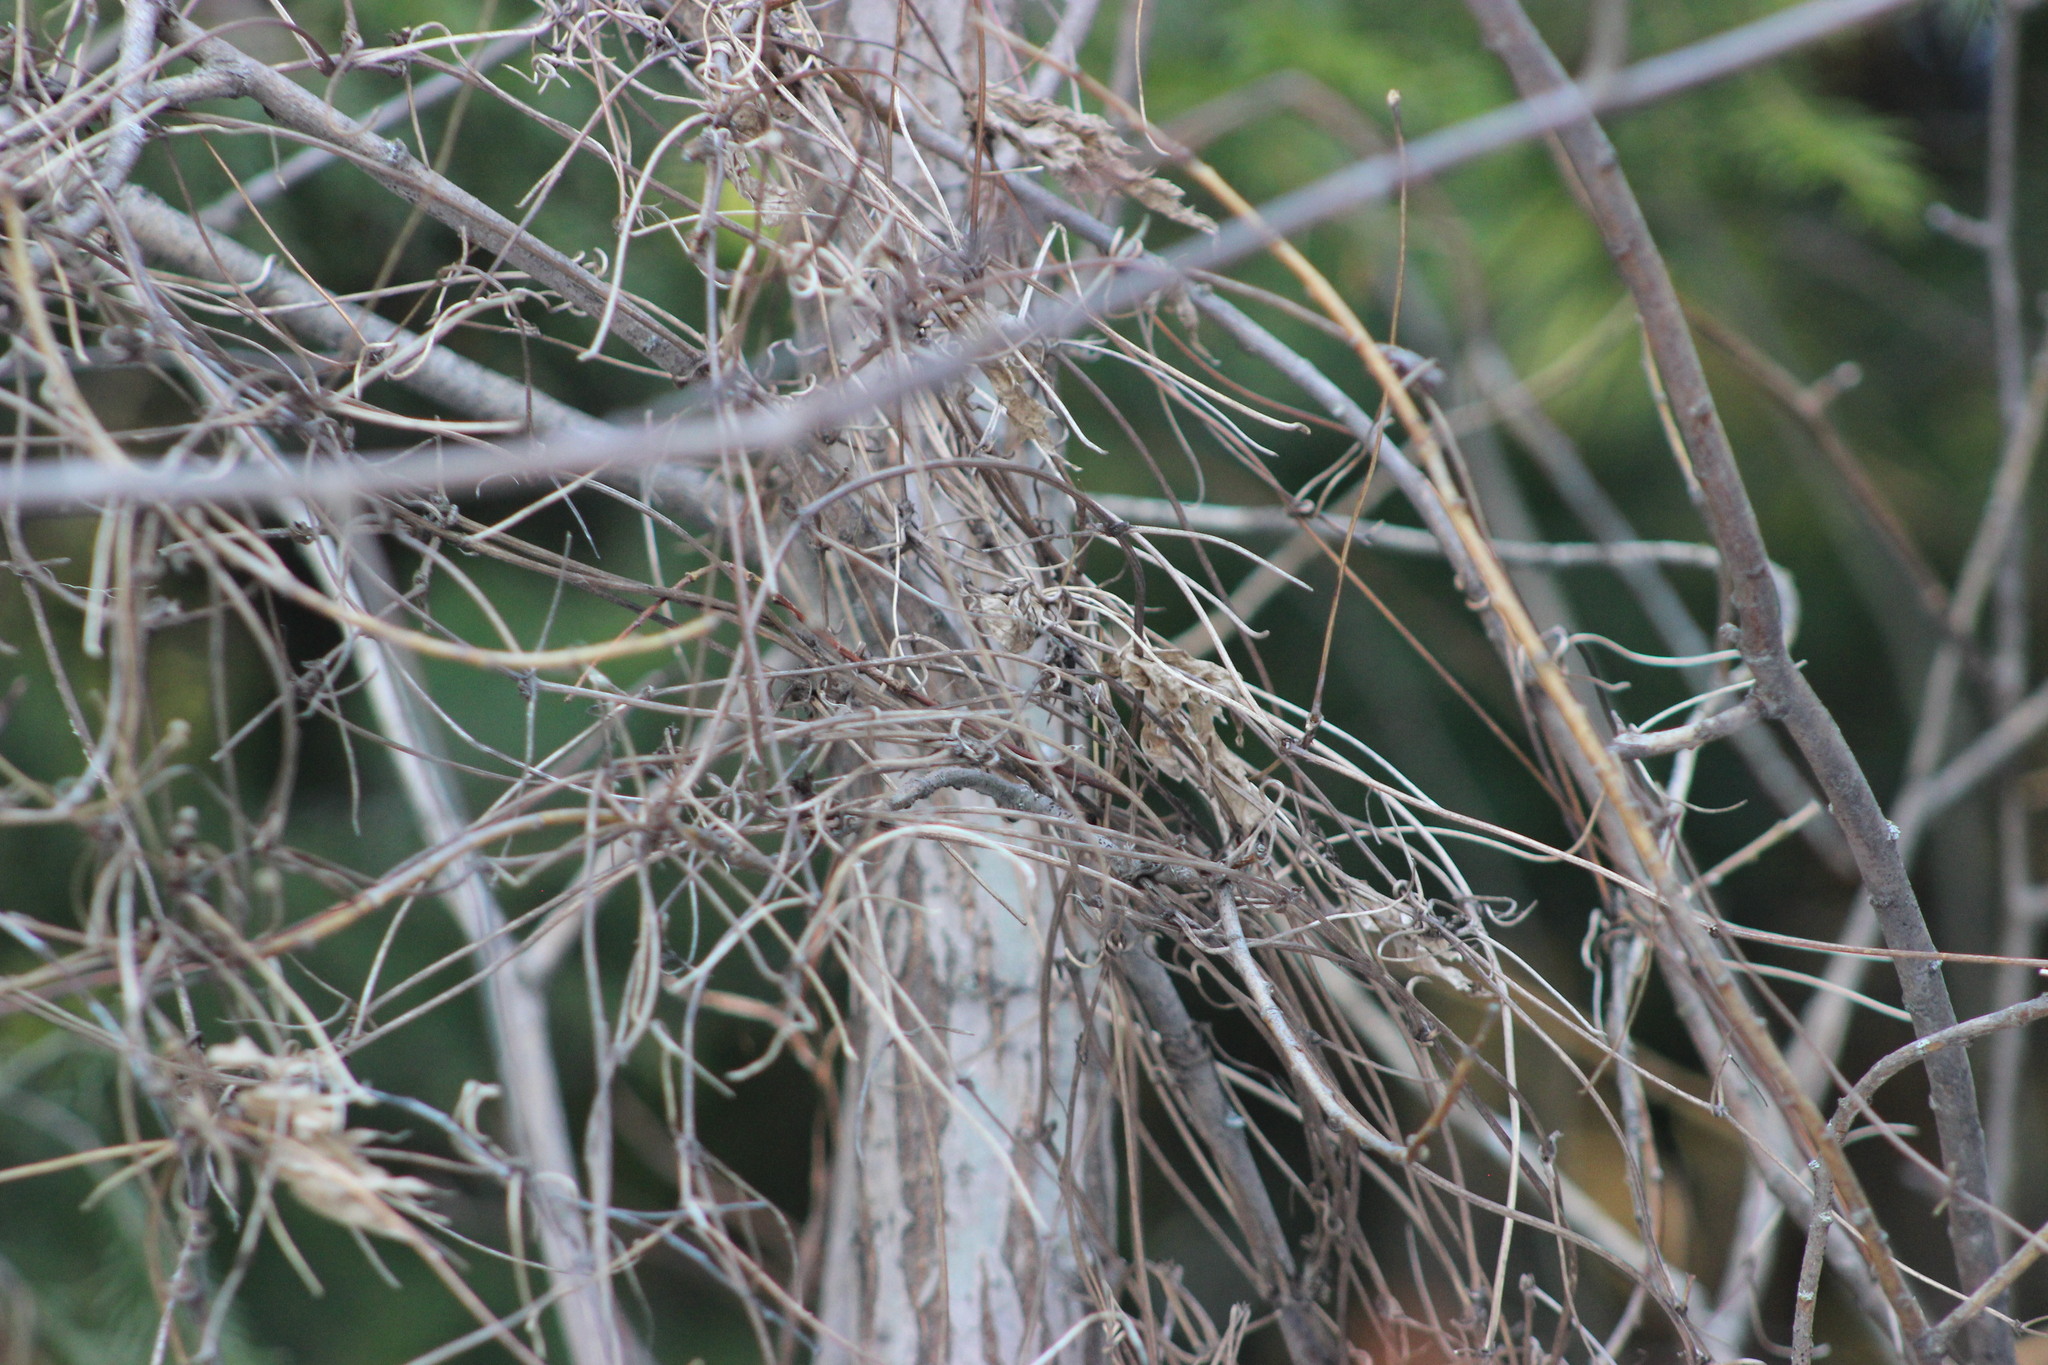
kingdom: Plantae
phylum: Tracheophyta
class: Magnoliopsida
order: Ranunculales
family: Ranunculaceae
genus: Clematis
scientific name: Clematis sibirica
